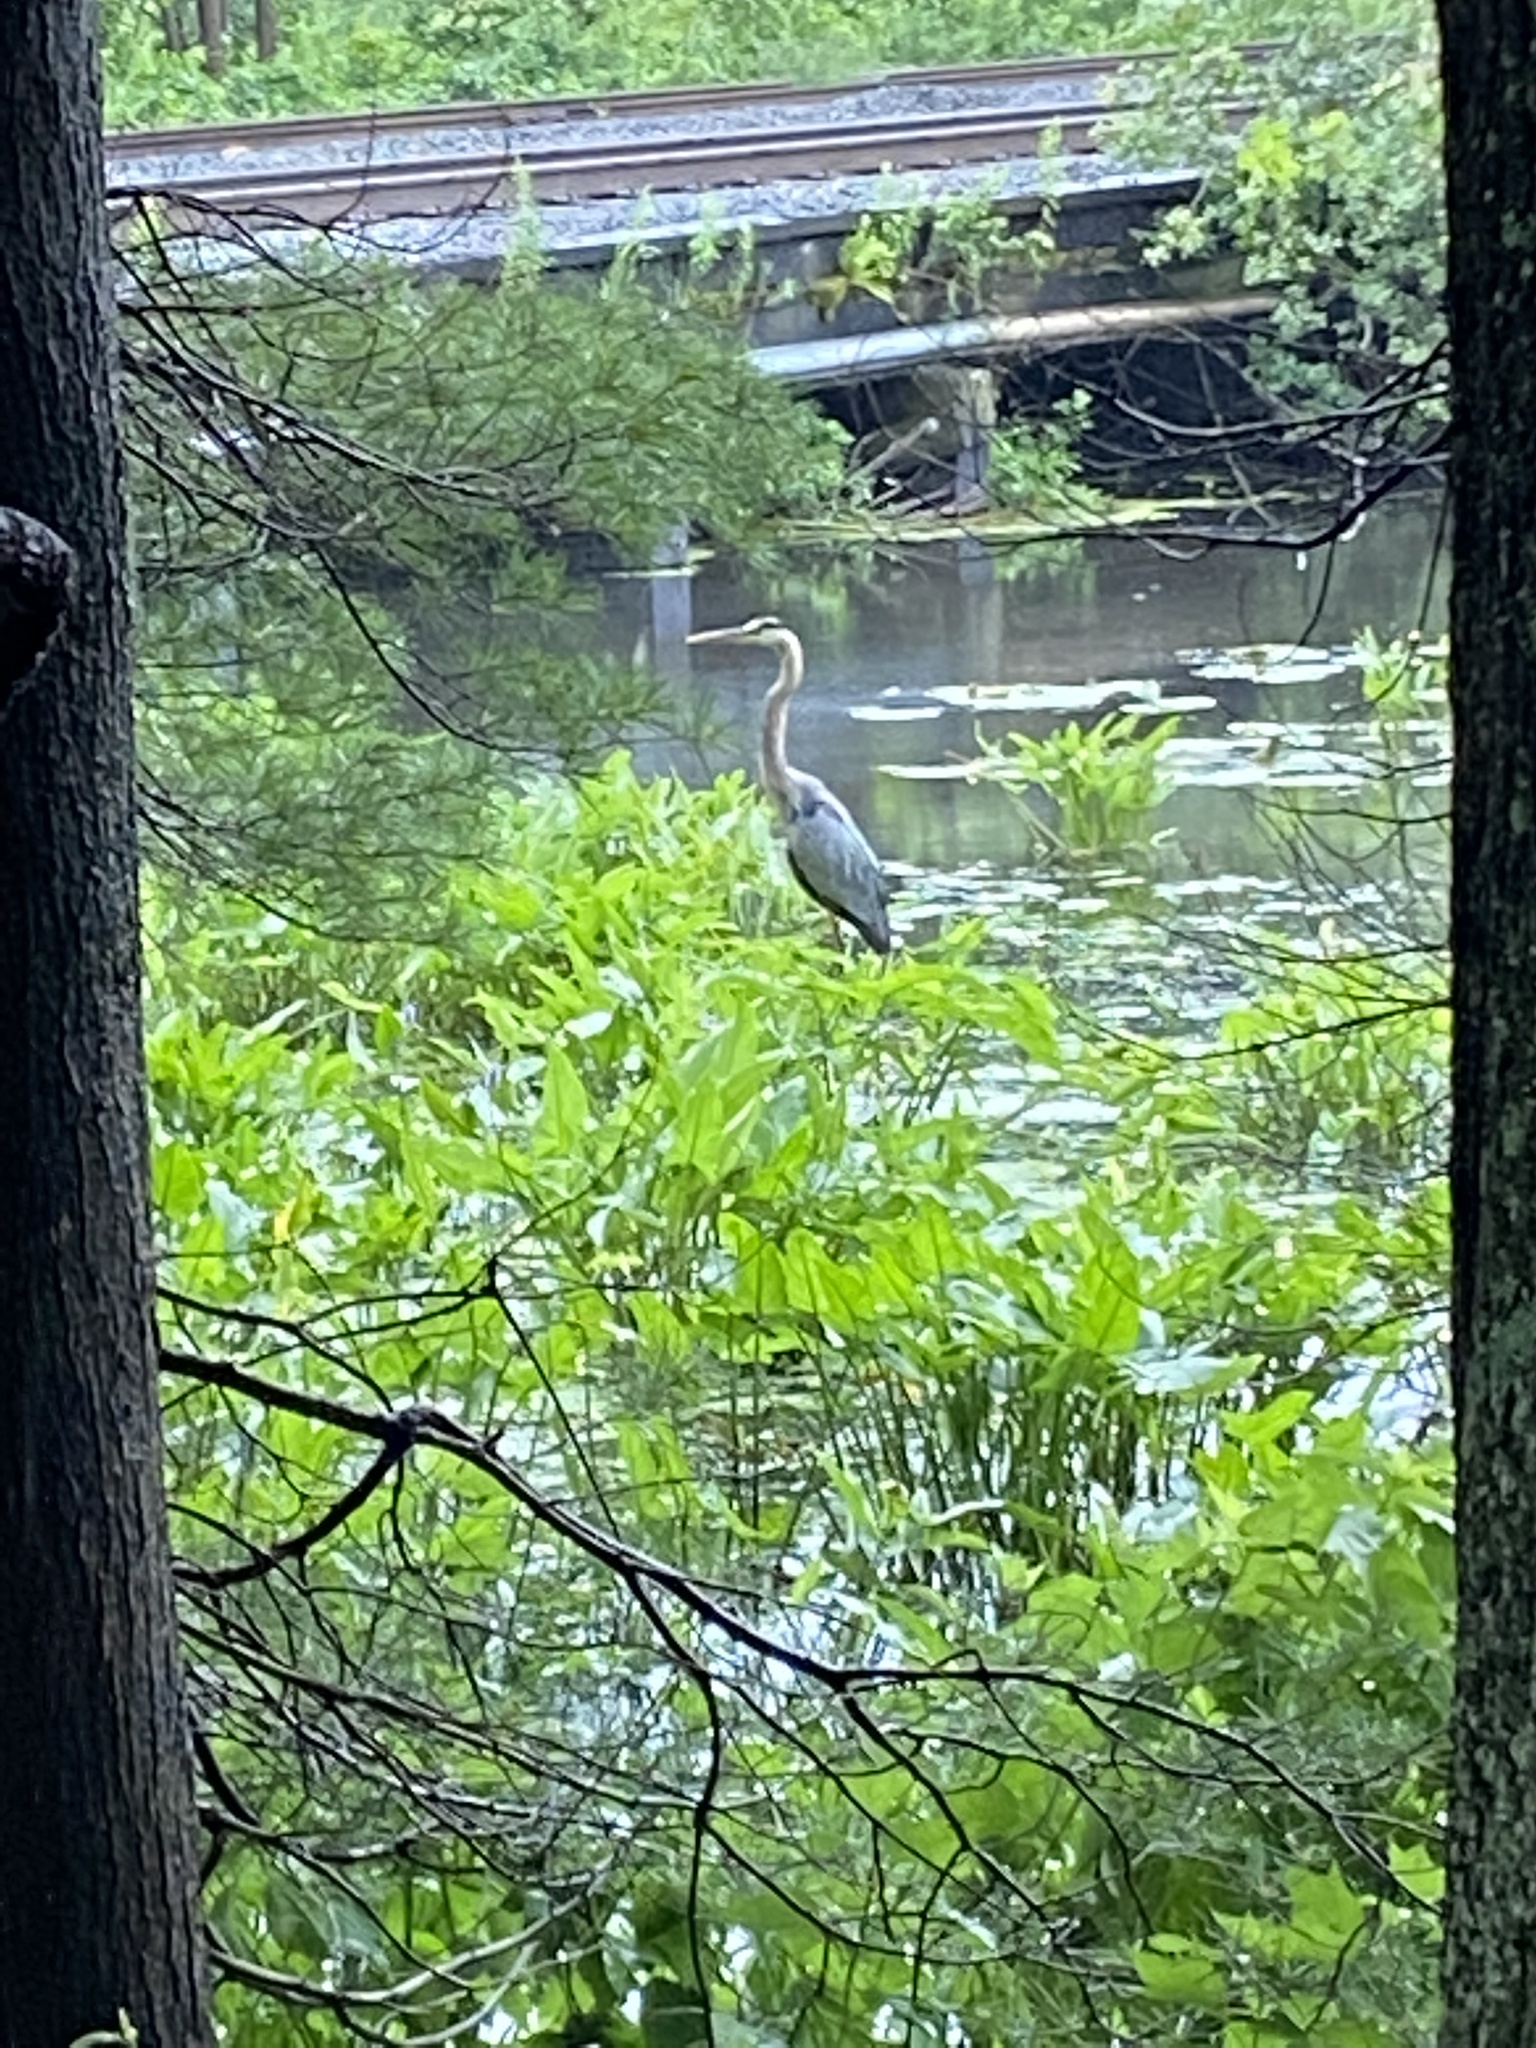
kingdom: Animalia
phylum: Chordata
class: Aves
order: Pelecaniformes
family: Ardeidae
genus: Ardea
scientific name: Ardea herodias
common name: Great blue heron
